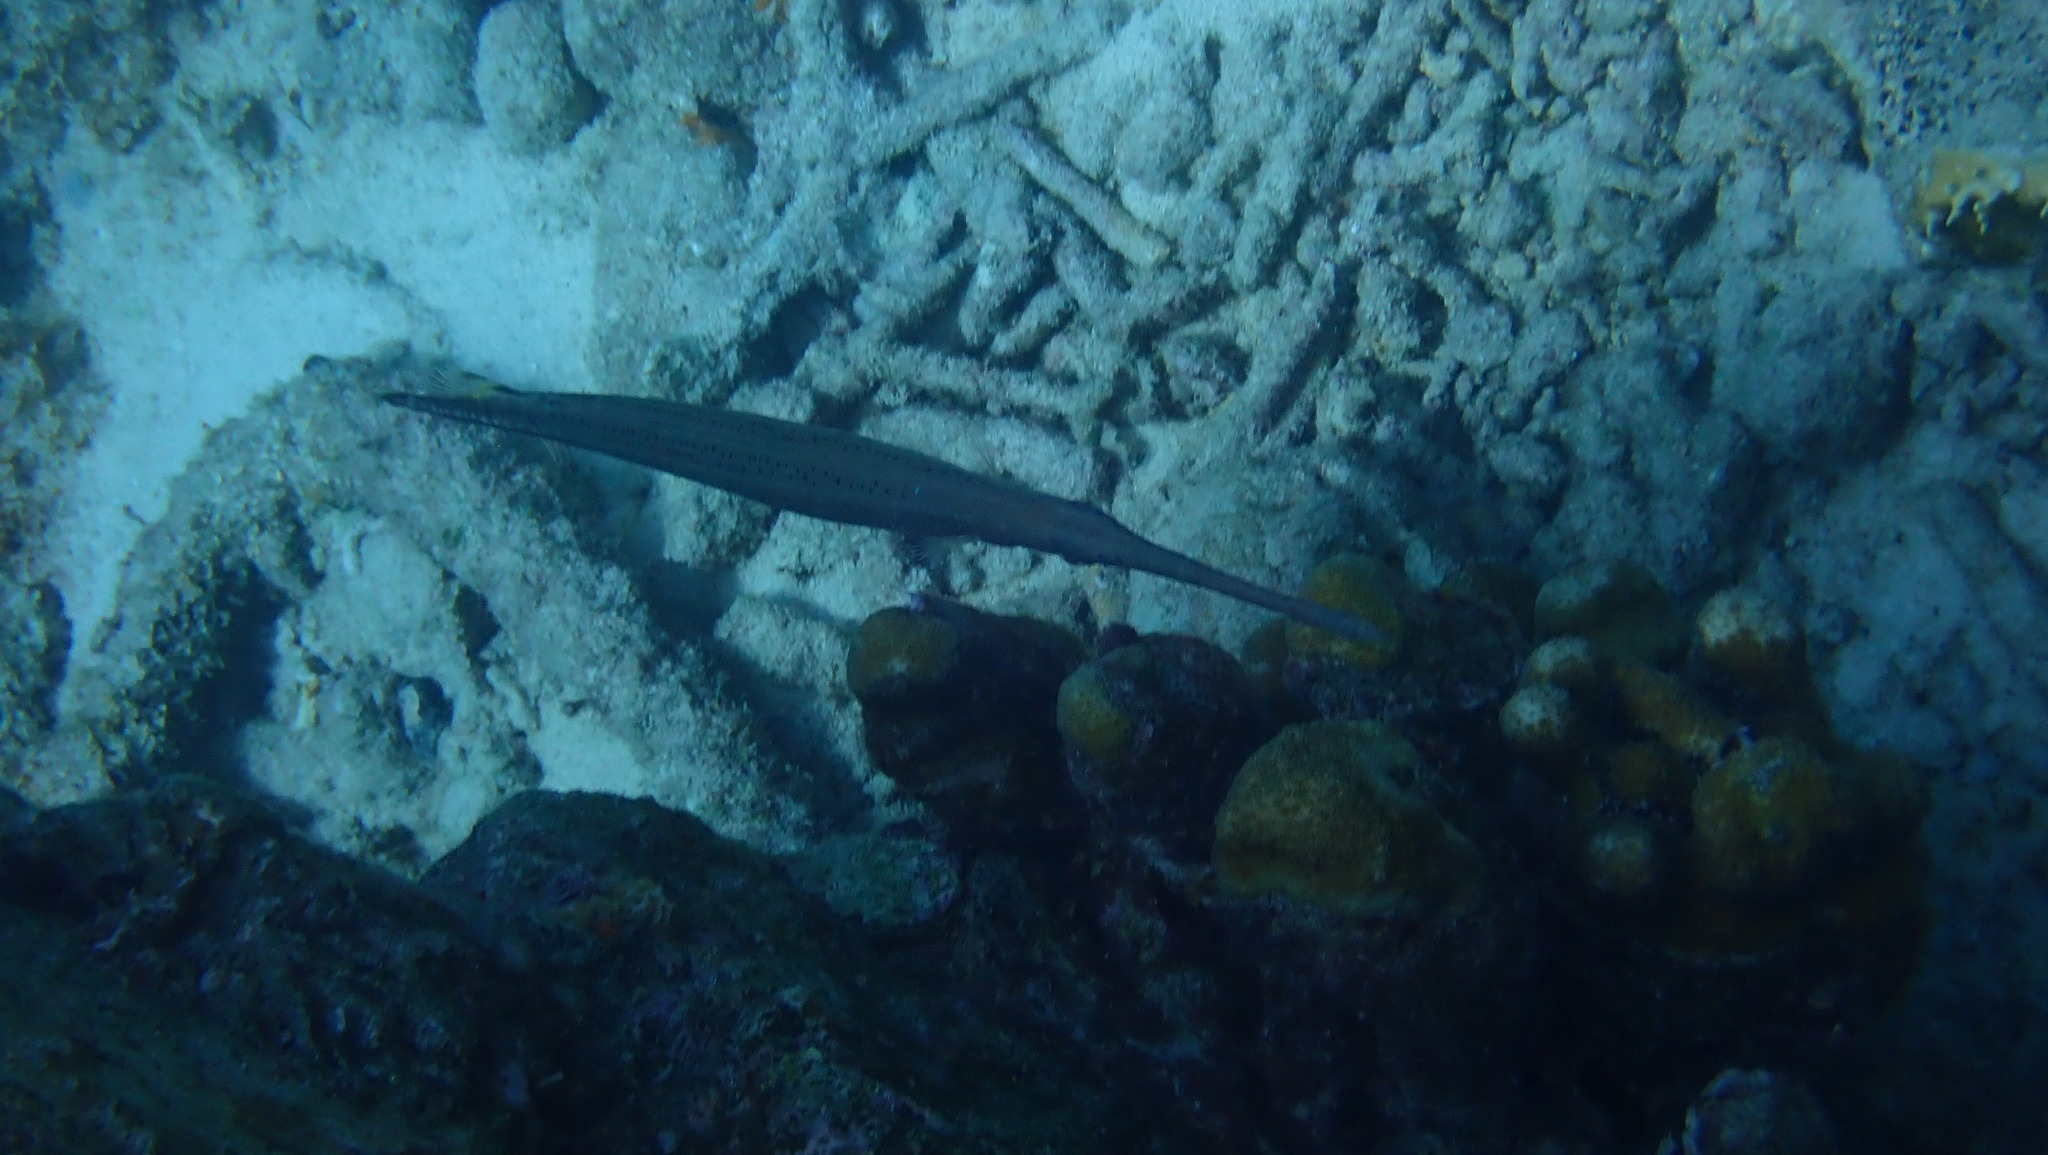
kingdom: Animalia
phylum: Chordata
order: Syngnathiformes
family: Aulostomidae
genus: Aulostomus
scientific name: Aulostomus maculatus
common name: West atlantic trumpetfish
